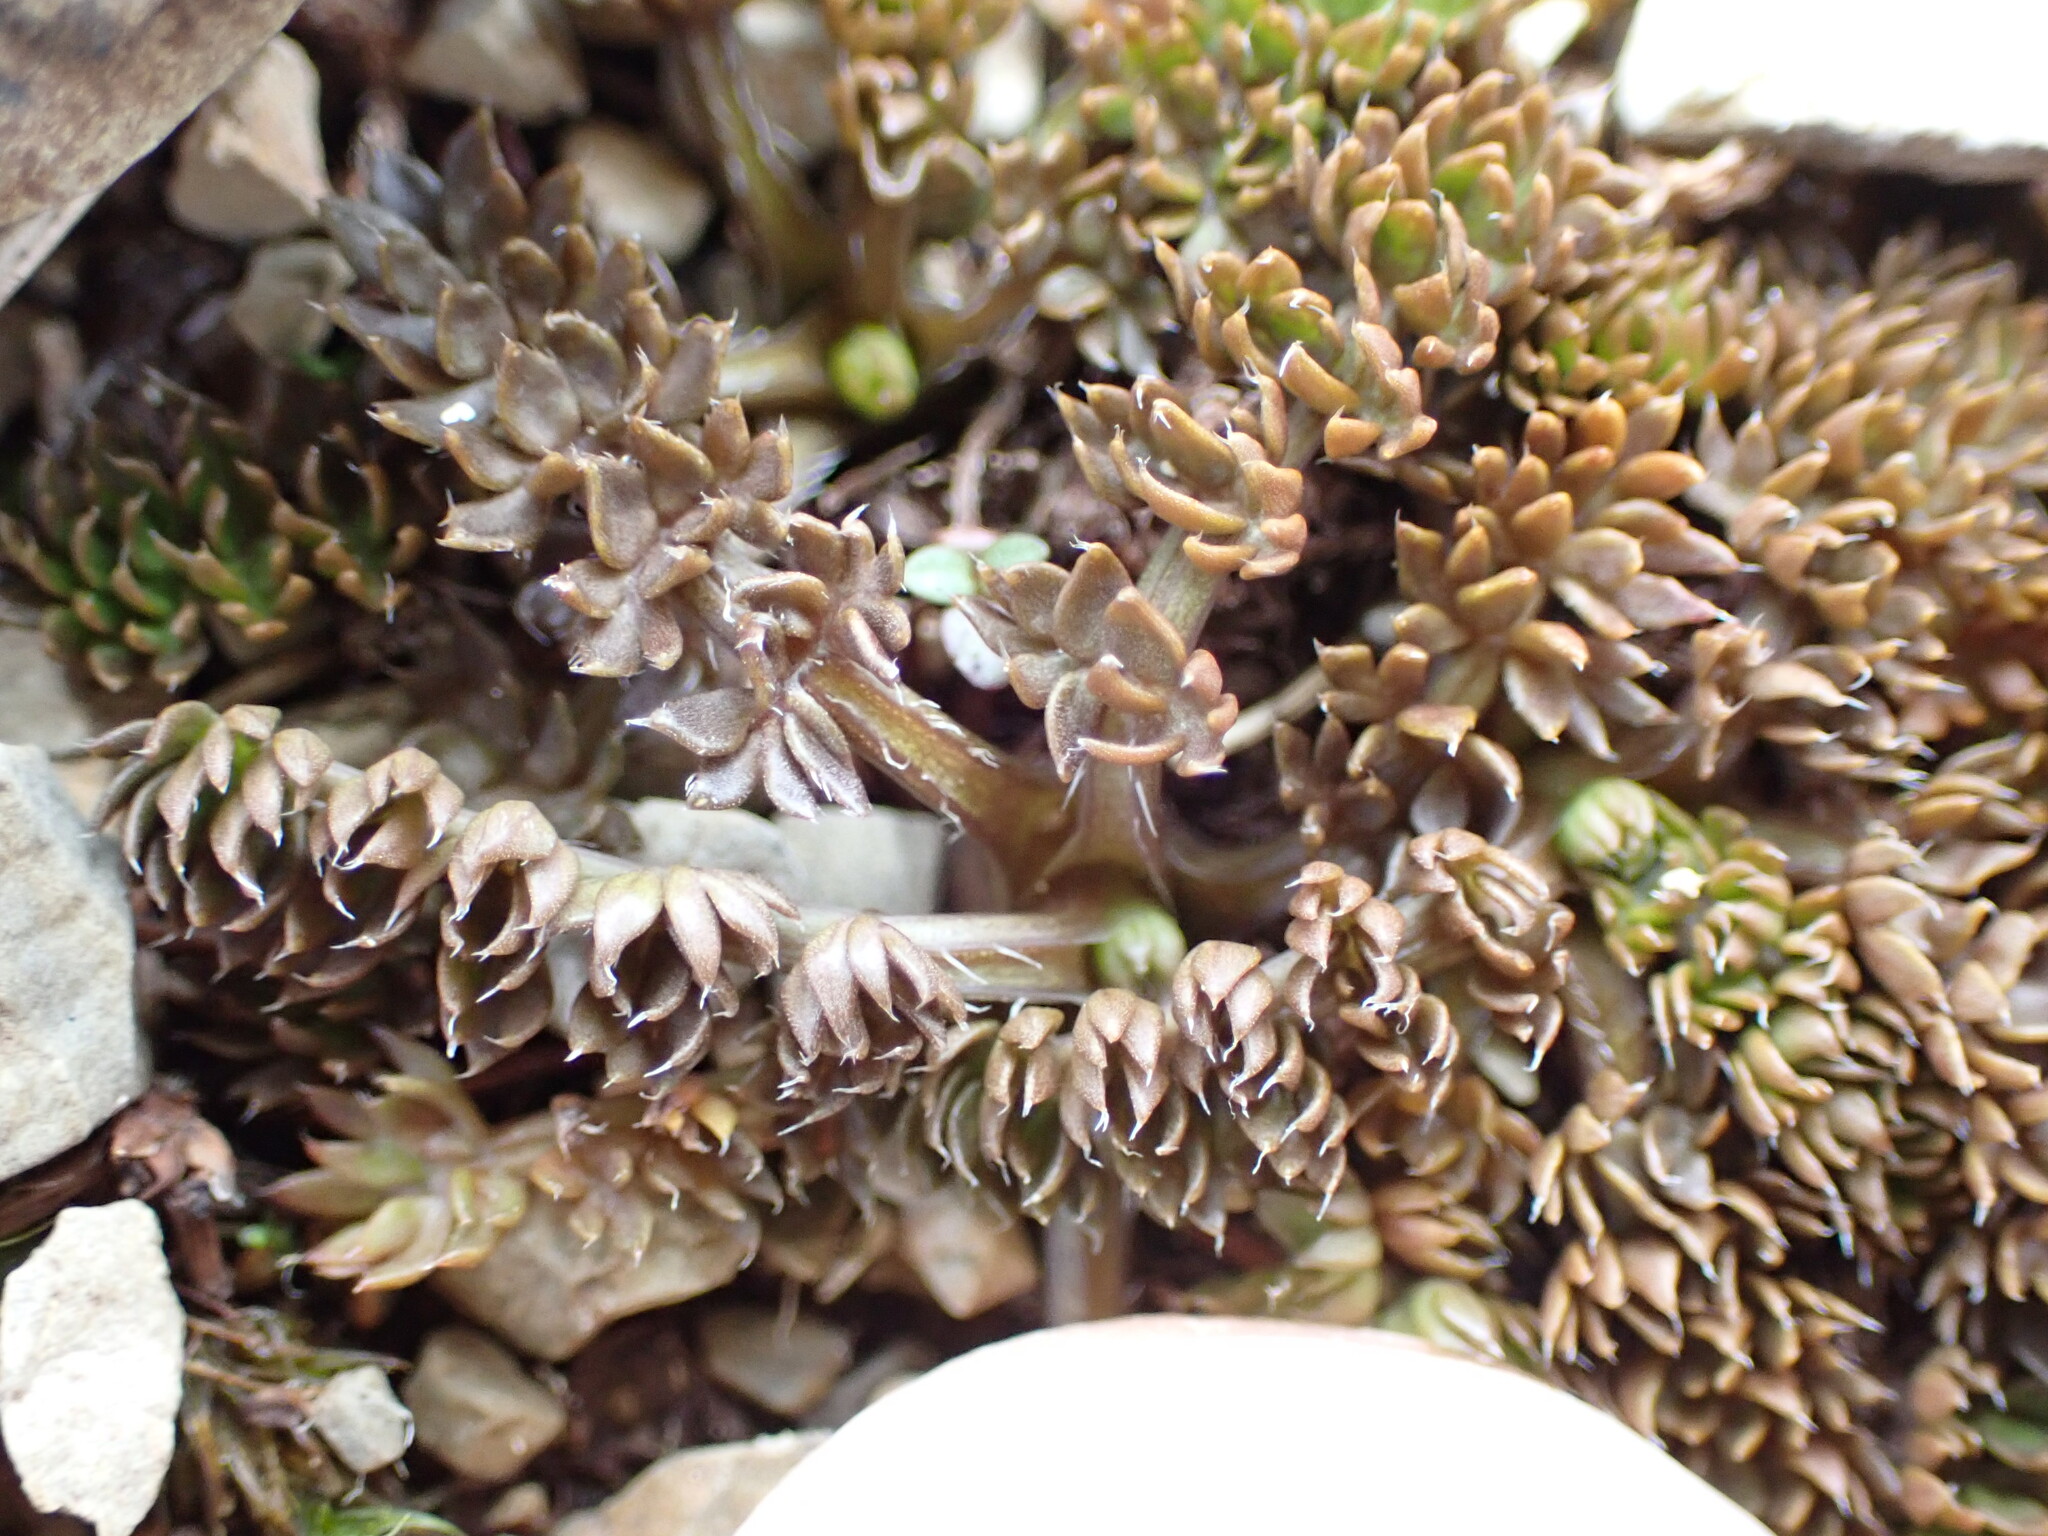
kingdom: Plantae
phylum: Tracheophyta
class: Magnoliopsida
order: Apiales
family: Apiaceae
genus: Chaerophyllum
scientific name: Chaerophyllum colensoi
